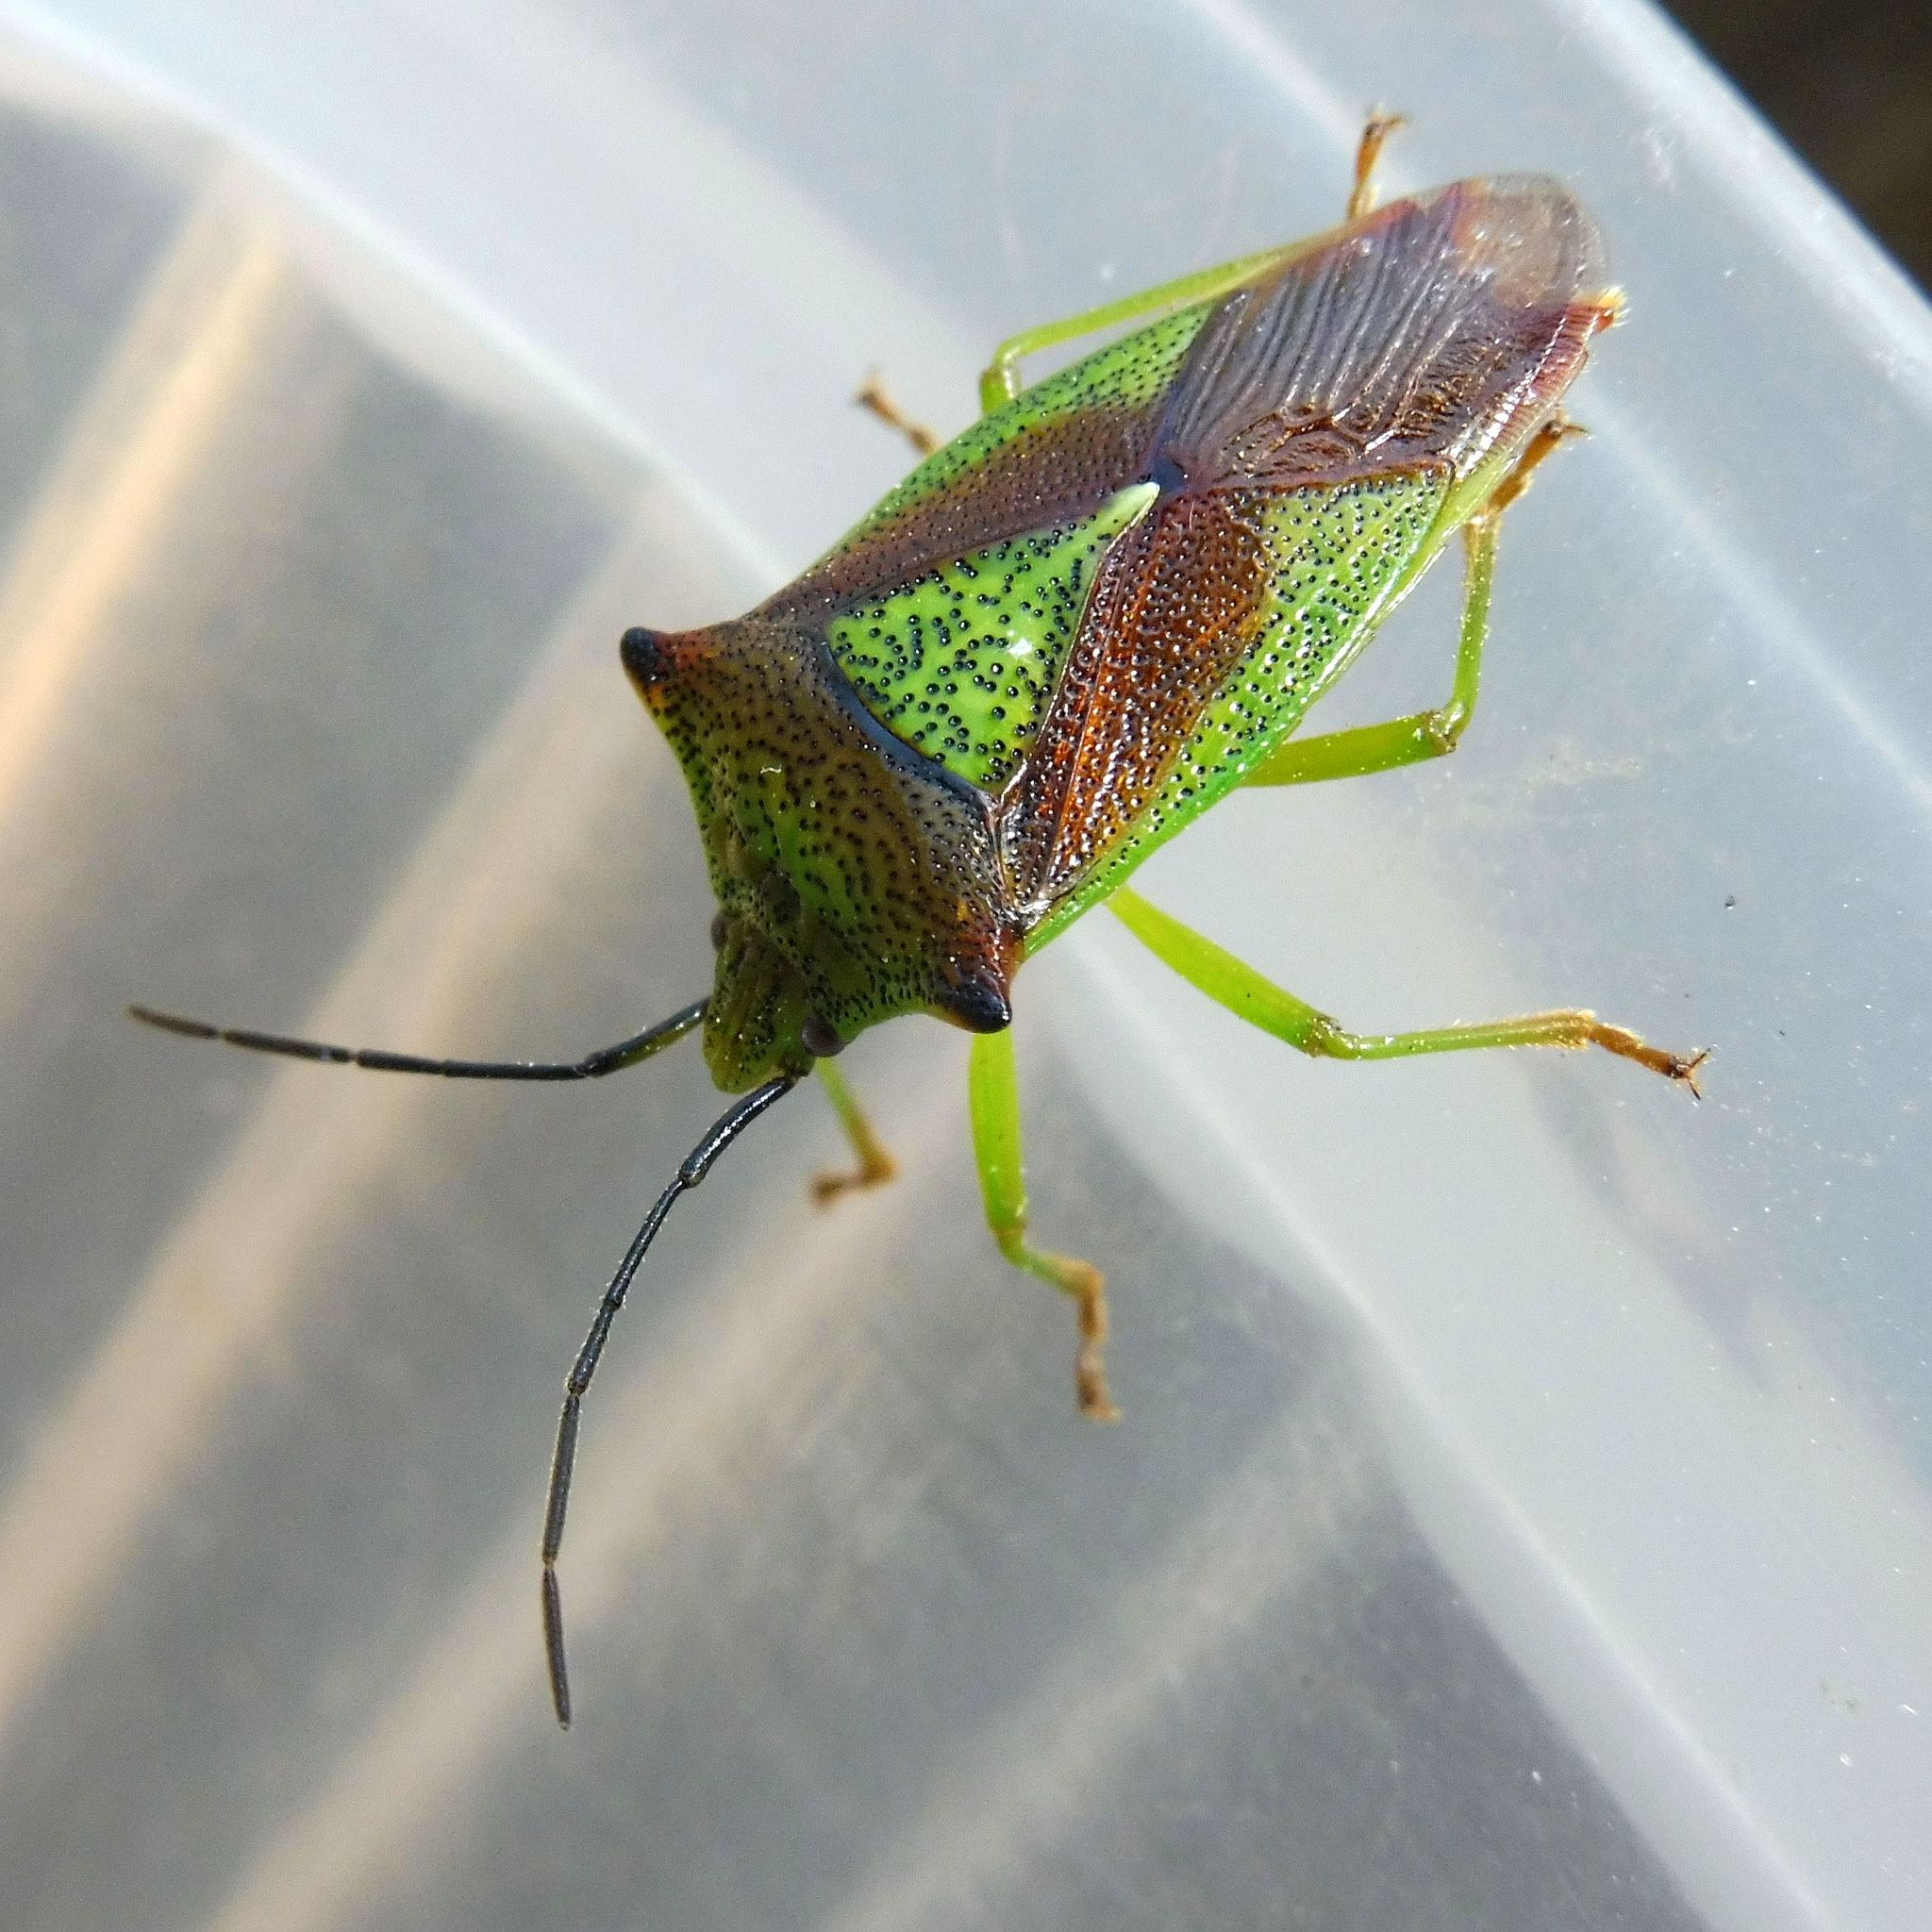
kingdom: Animalia
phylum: Arthropoda
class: Insecta
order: Hemiptera
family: Acanthosomatidae
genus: Acanthosoma
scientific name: Acanthosoma haemorrhoidale
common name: Hawthorn shieldbug
